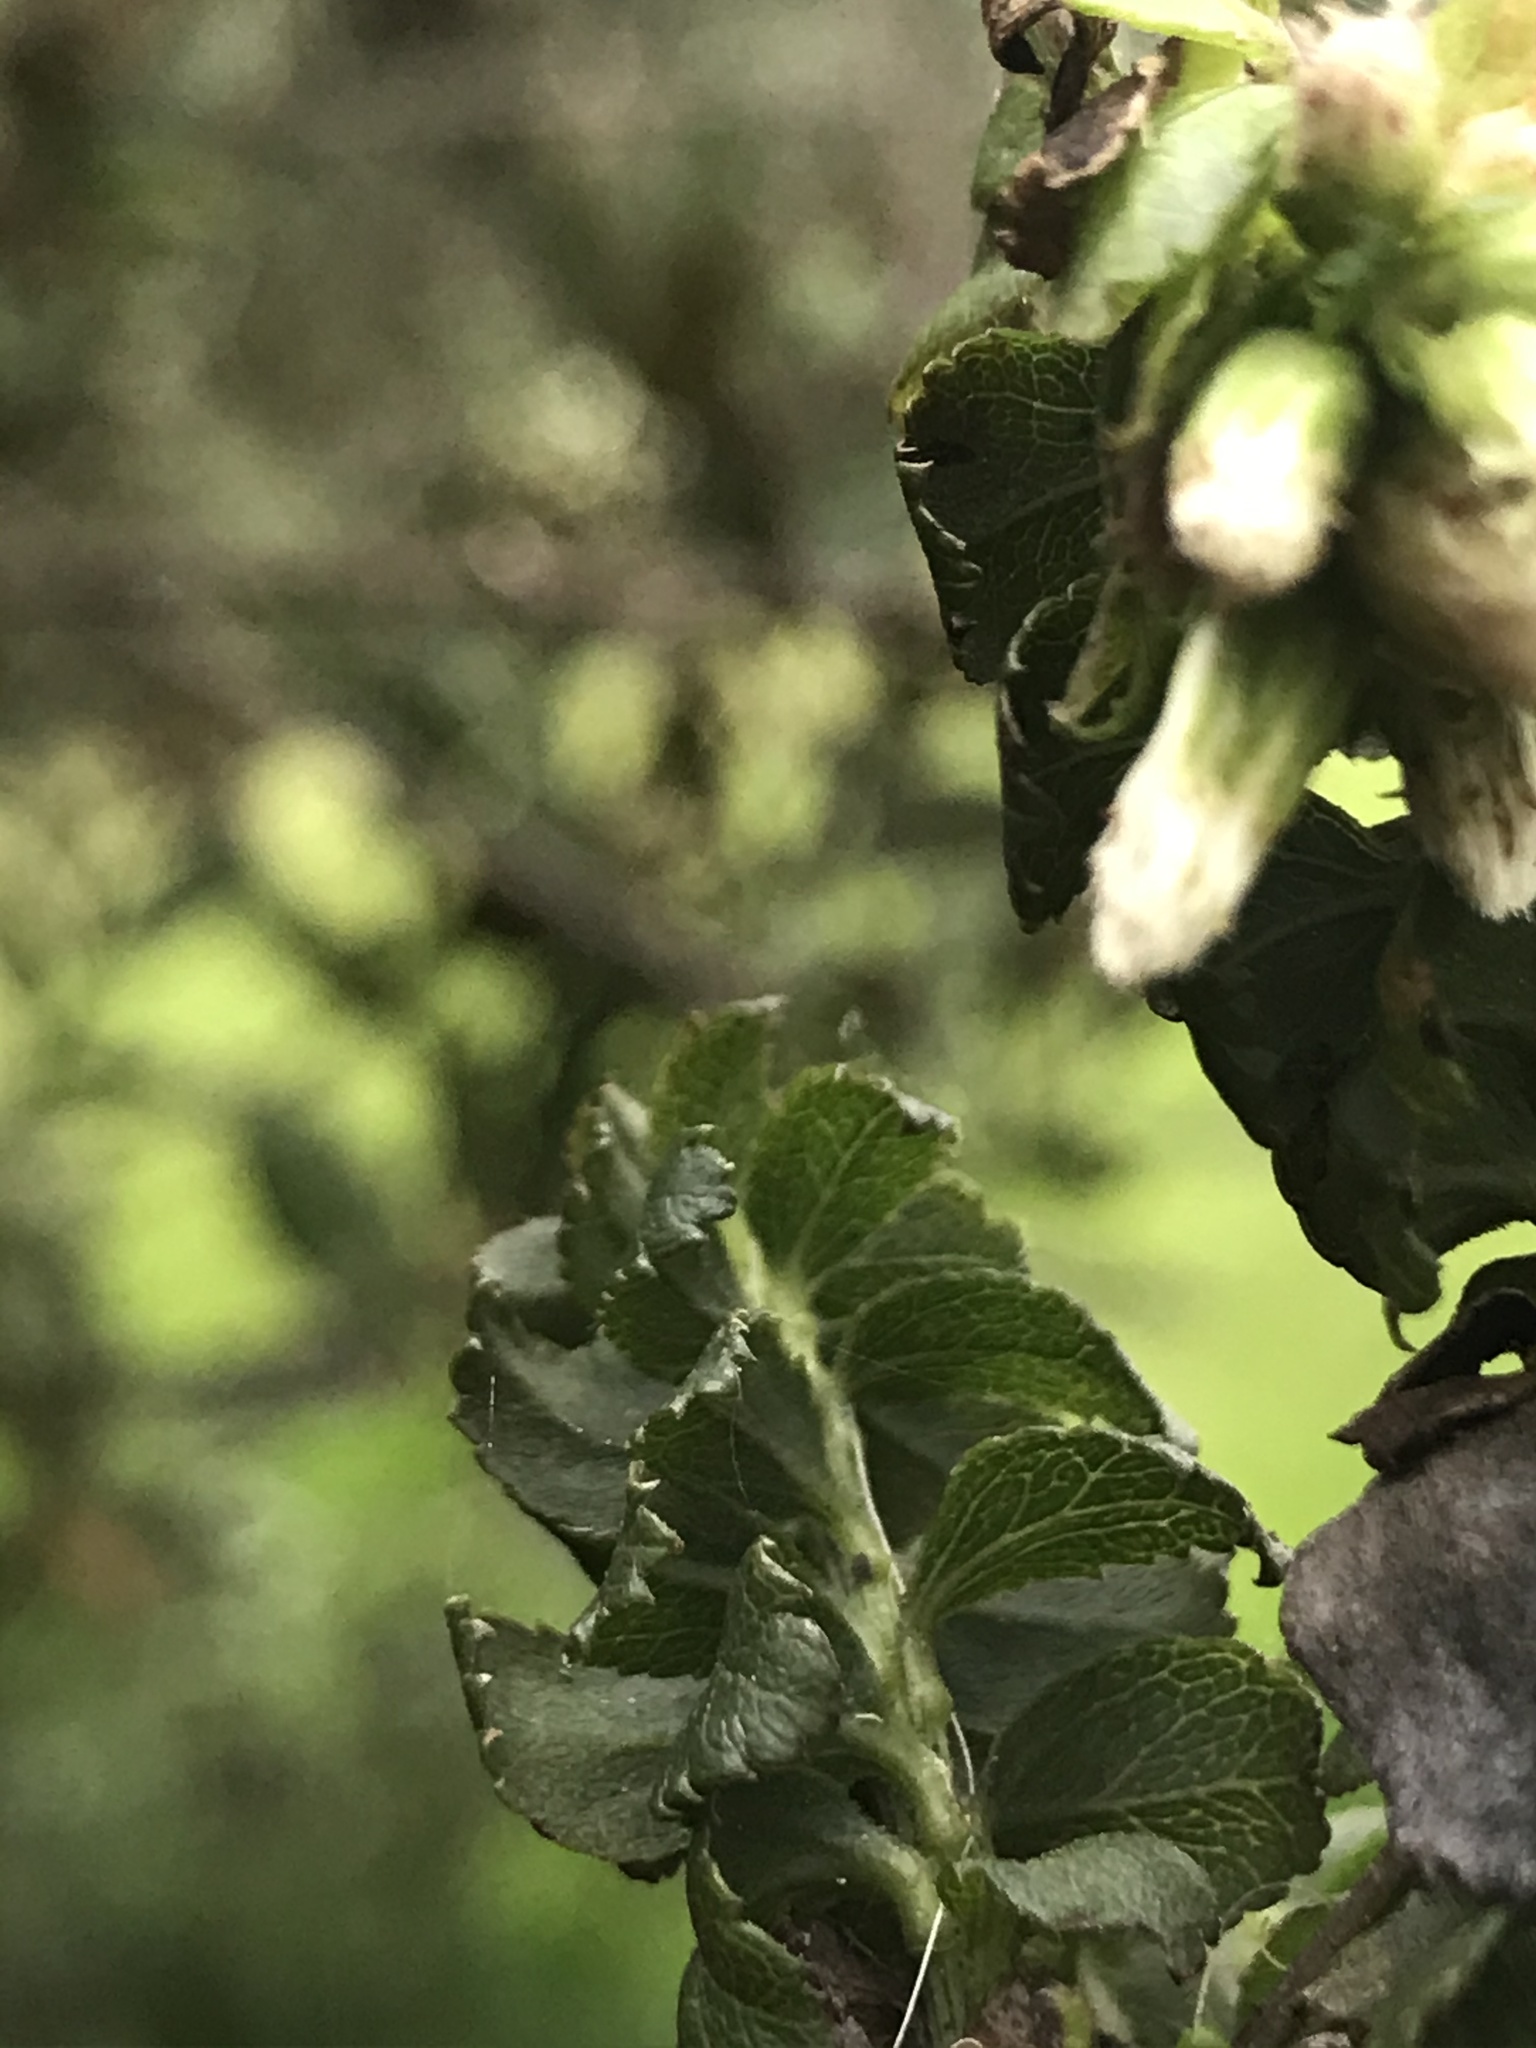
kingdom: Plantae
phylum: Tracheophyta
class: Magnoliopsida
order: Asterales
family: Asteraceae
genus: Baccharis
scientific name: Baccharis bogotensis
